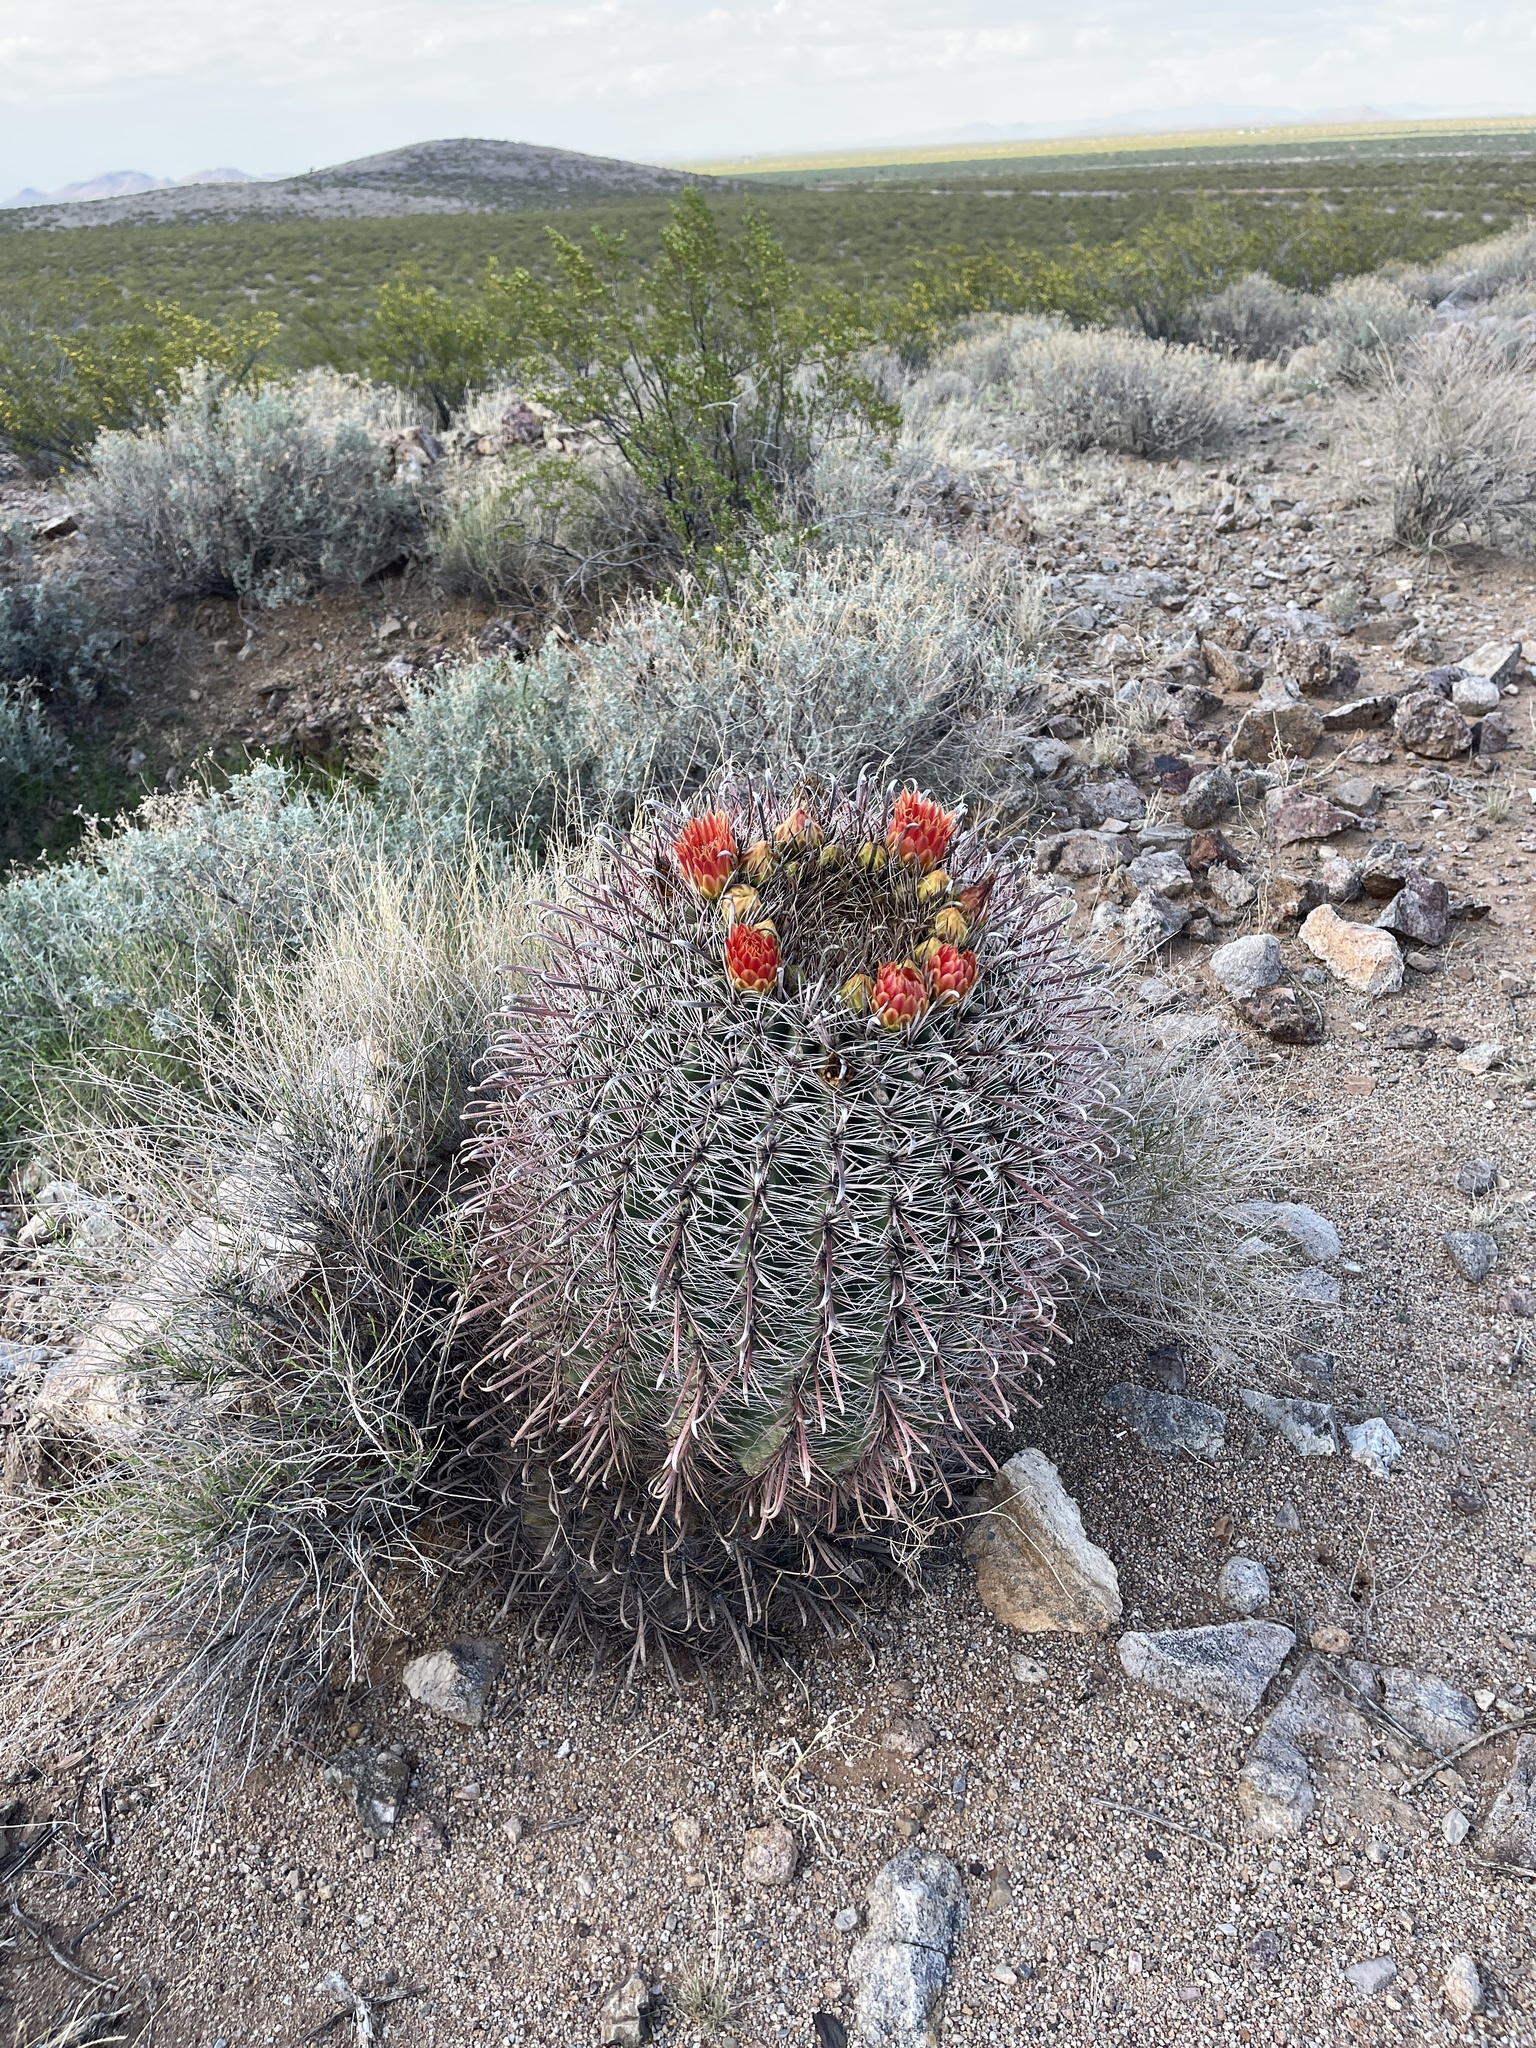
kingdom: Plantae
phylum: Tracheophyta
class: Magnoliopsida
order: Caryophyllales
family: Cactaceae
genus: Ferocactus
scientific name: Ferocactus wislizeni
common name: Candy barrel cactus
